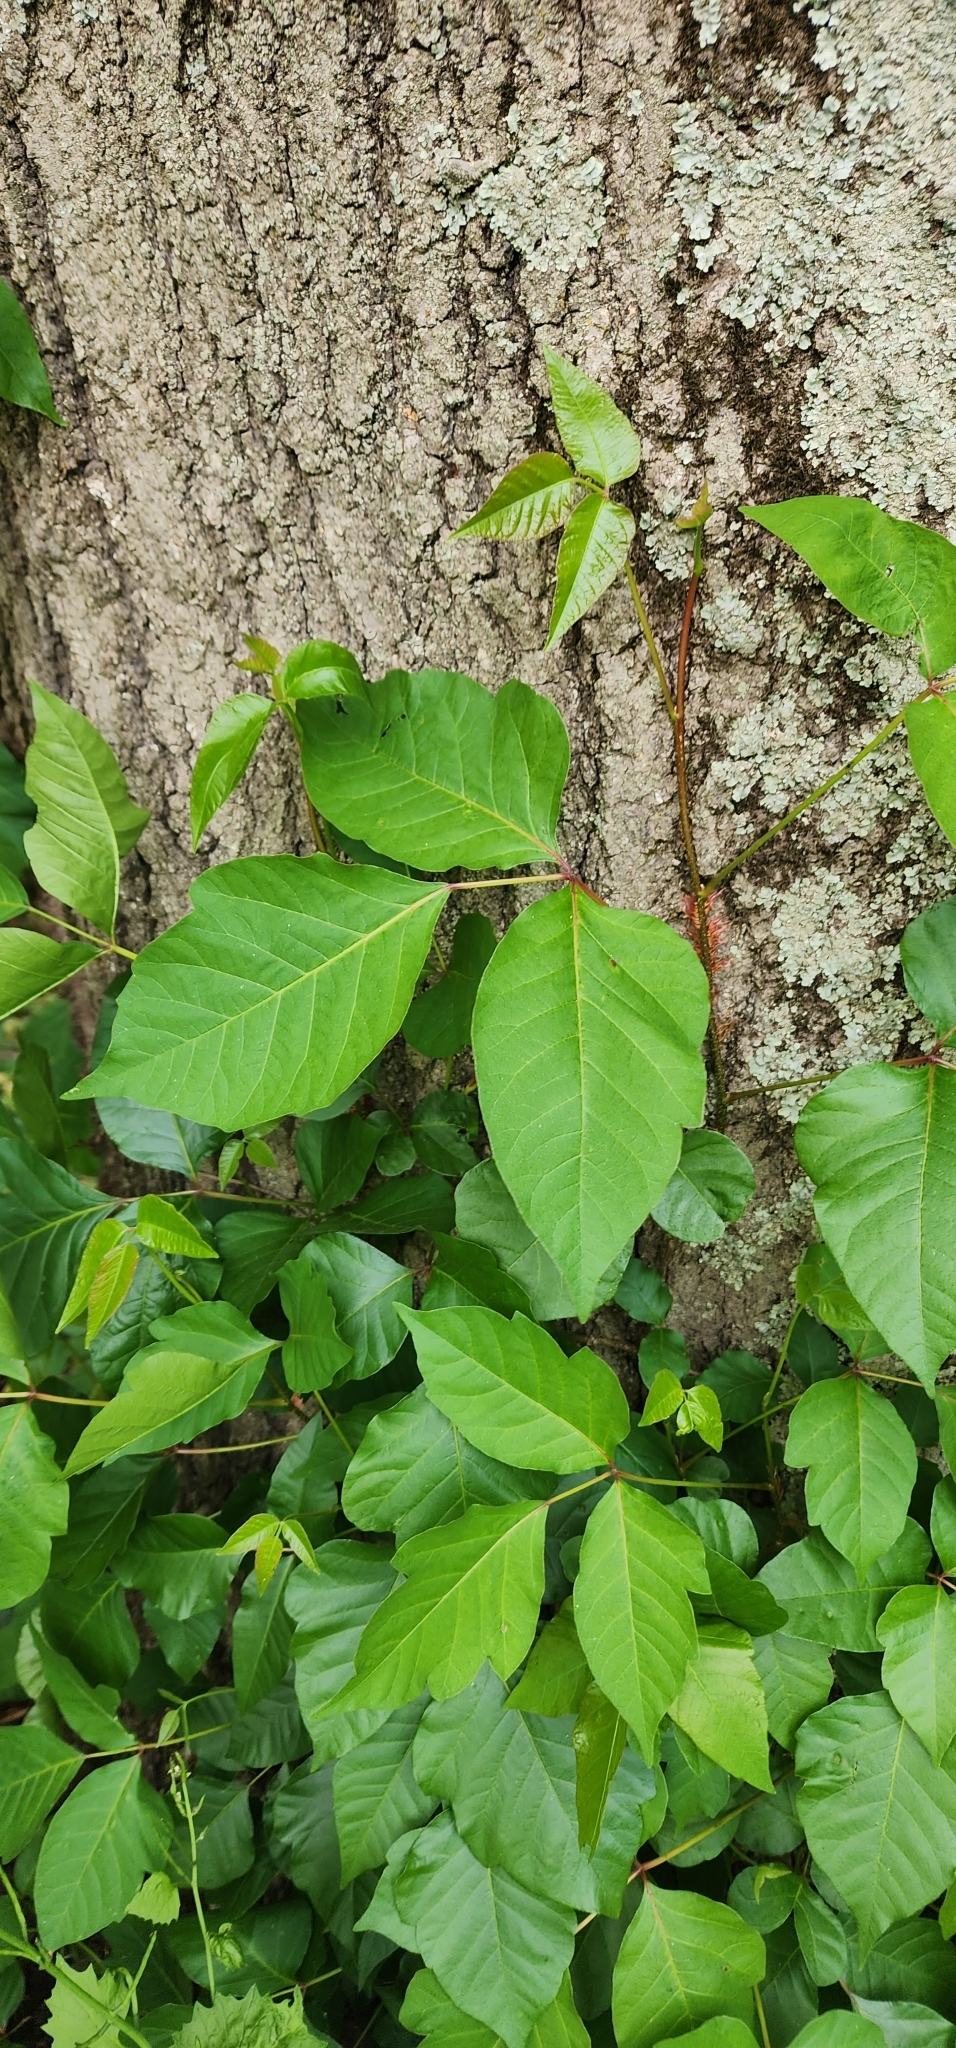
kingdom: Plantae
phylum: Tracheophyta
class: Magnoliopsida
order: Sapindales
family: Anacardiaceae
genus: Toxicodendron
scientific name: Toxicodendron radicans
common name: Poison ivy
